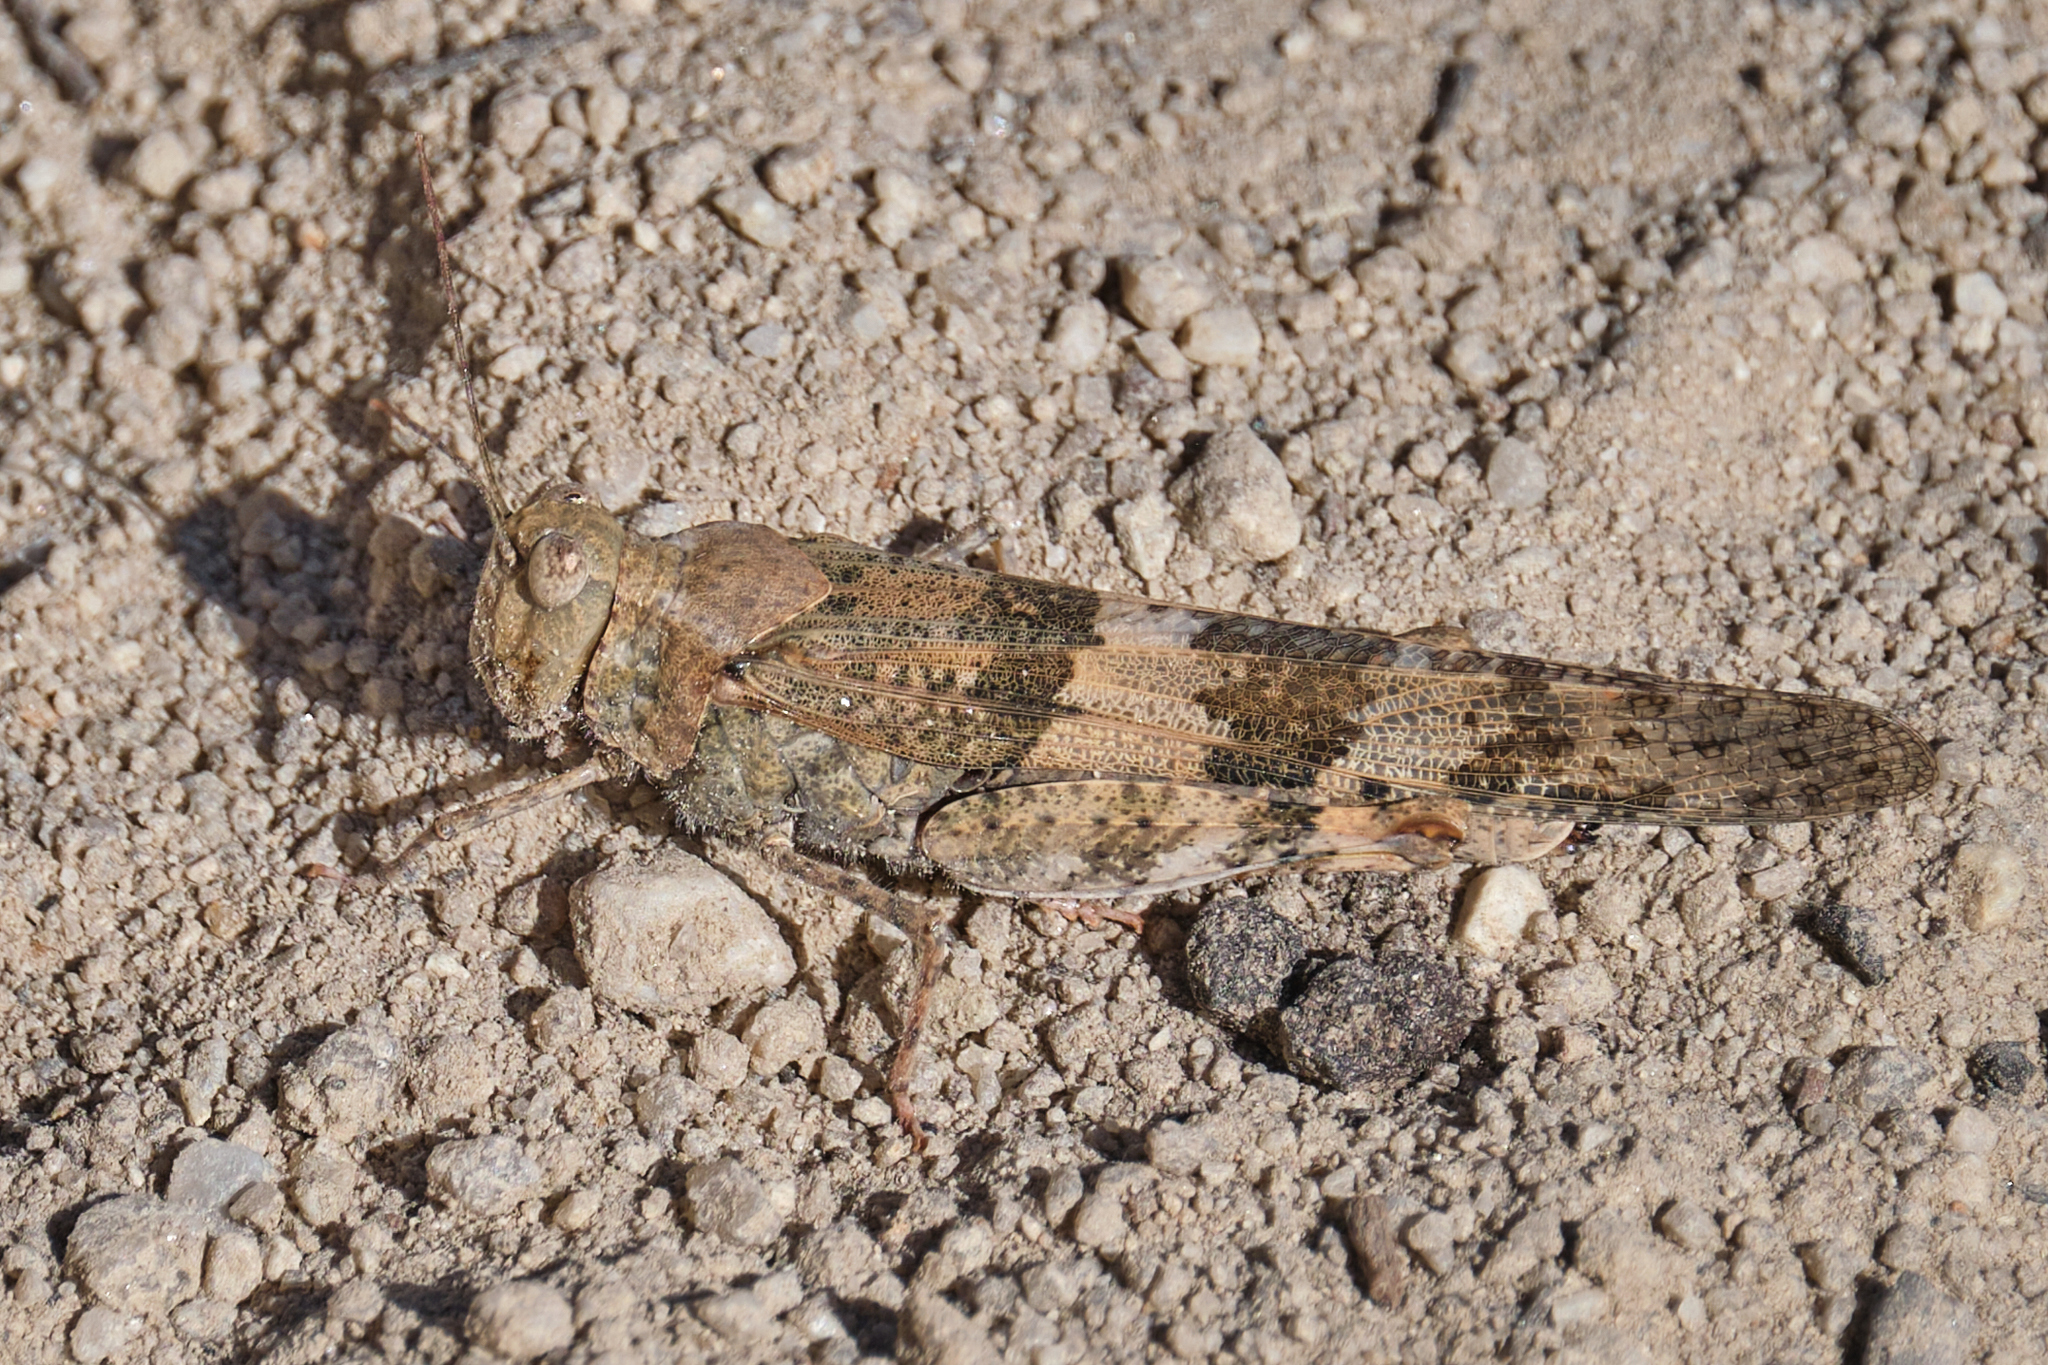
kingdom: Animalia
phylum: Arthropoda
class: Insecta
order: Orthoptera
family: Acrididae
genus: Trimerotropis
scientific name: Trimerotropis pallidipennis
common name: Pallid-winged grasshopper
